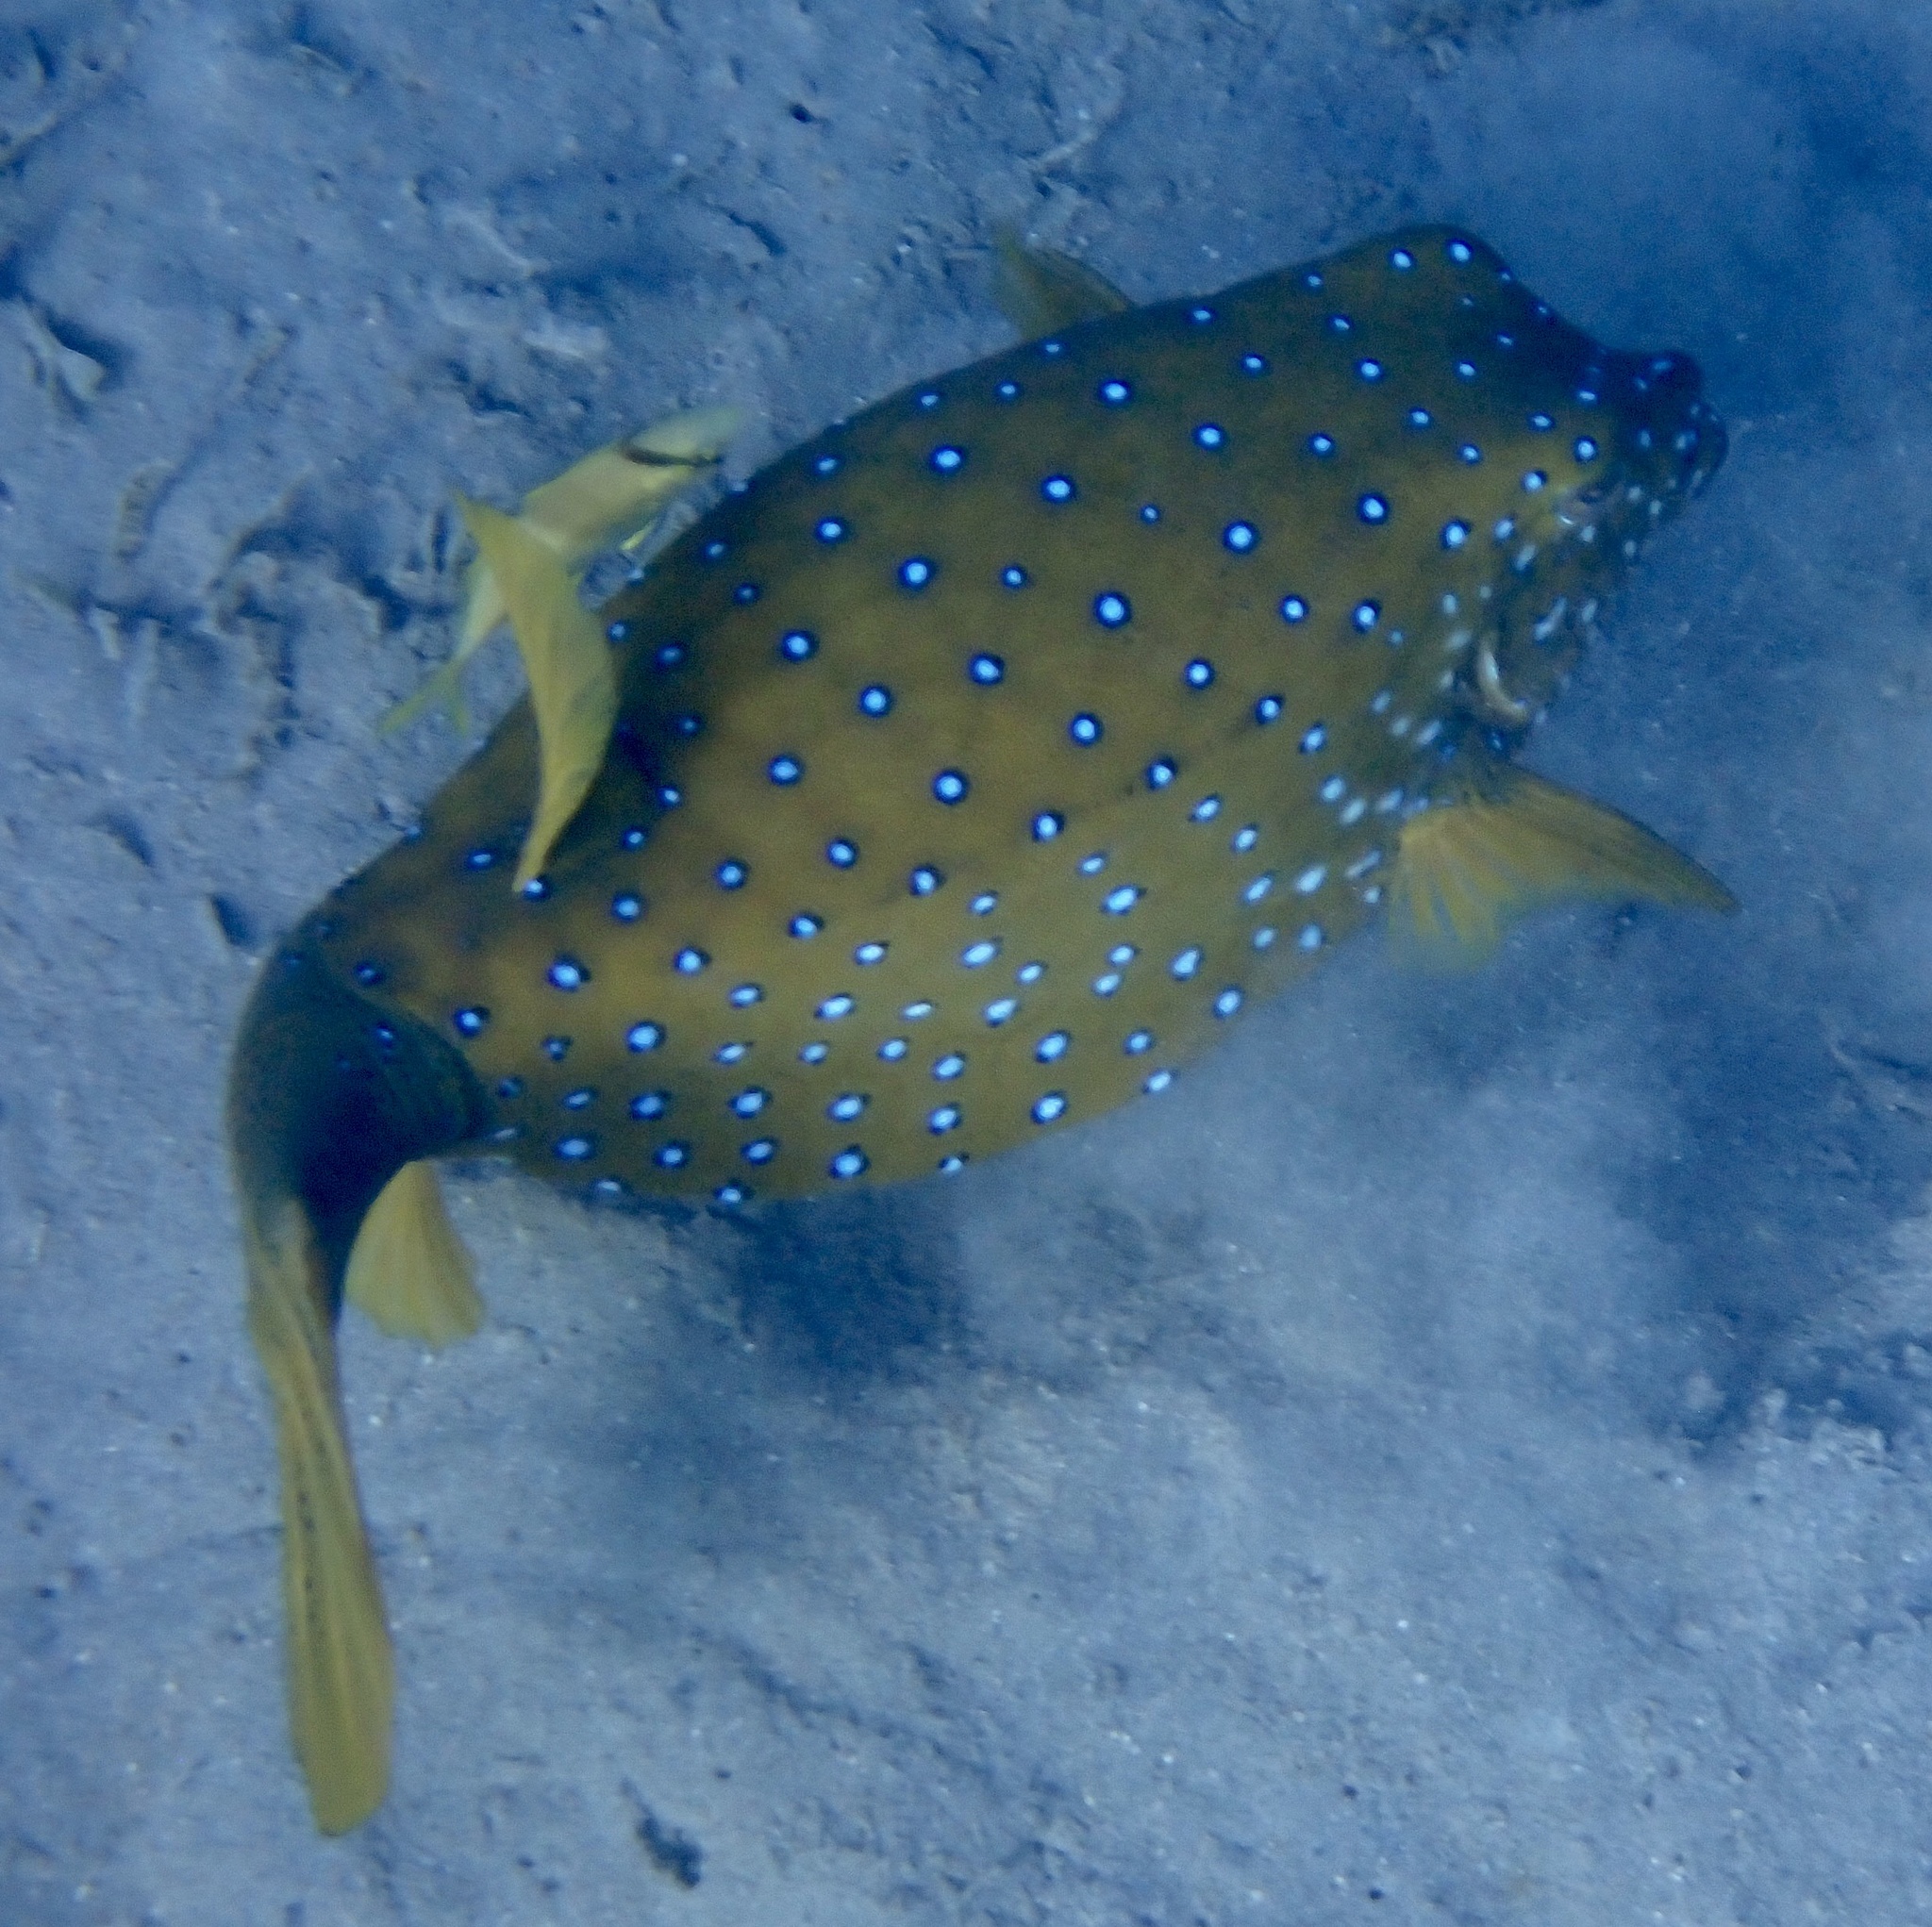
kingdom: Animalia
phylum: Chordata
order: Tetraodontiformes
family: Ostraciidae
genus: Ostracion
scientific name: Ostracion cubicus
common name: Cube trunkfish
